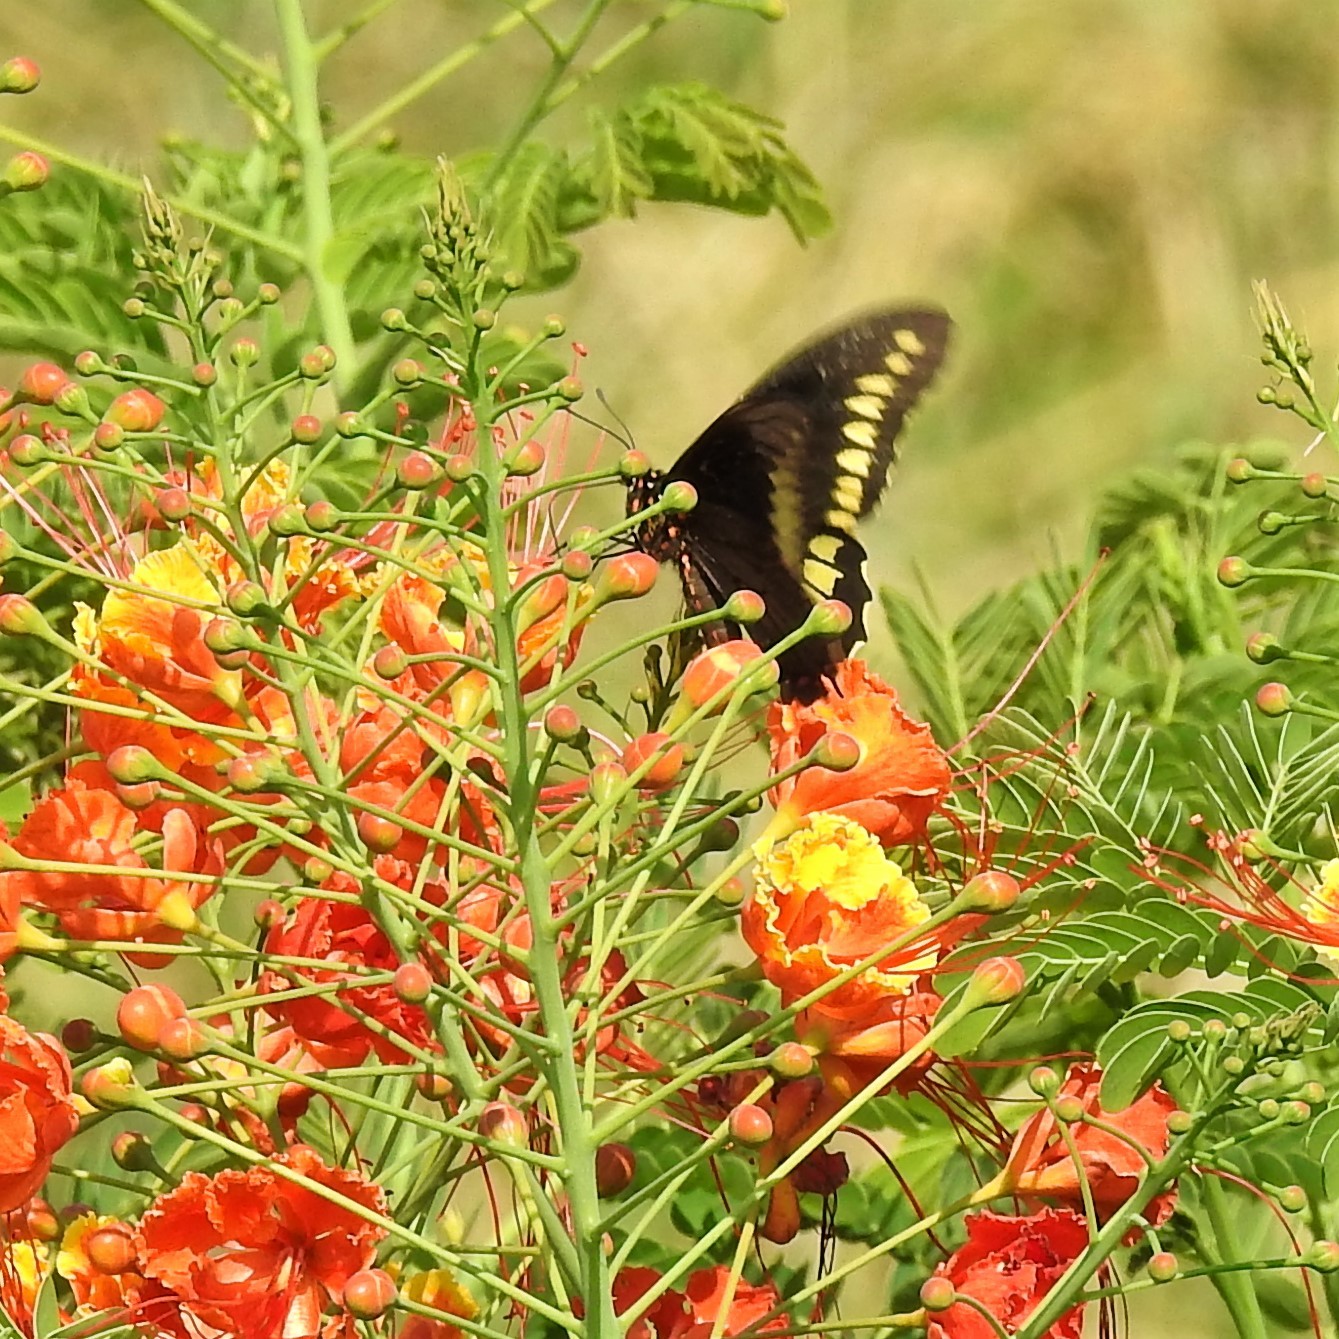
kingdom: Animalia
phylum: Arthropoda
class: Insecta
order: Lepidoptera
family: Papilionidae
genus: Battus
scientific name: Battus polydamas
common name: Polydamas swallowtail
